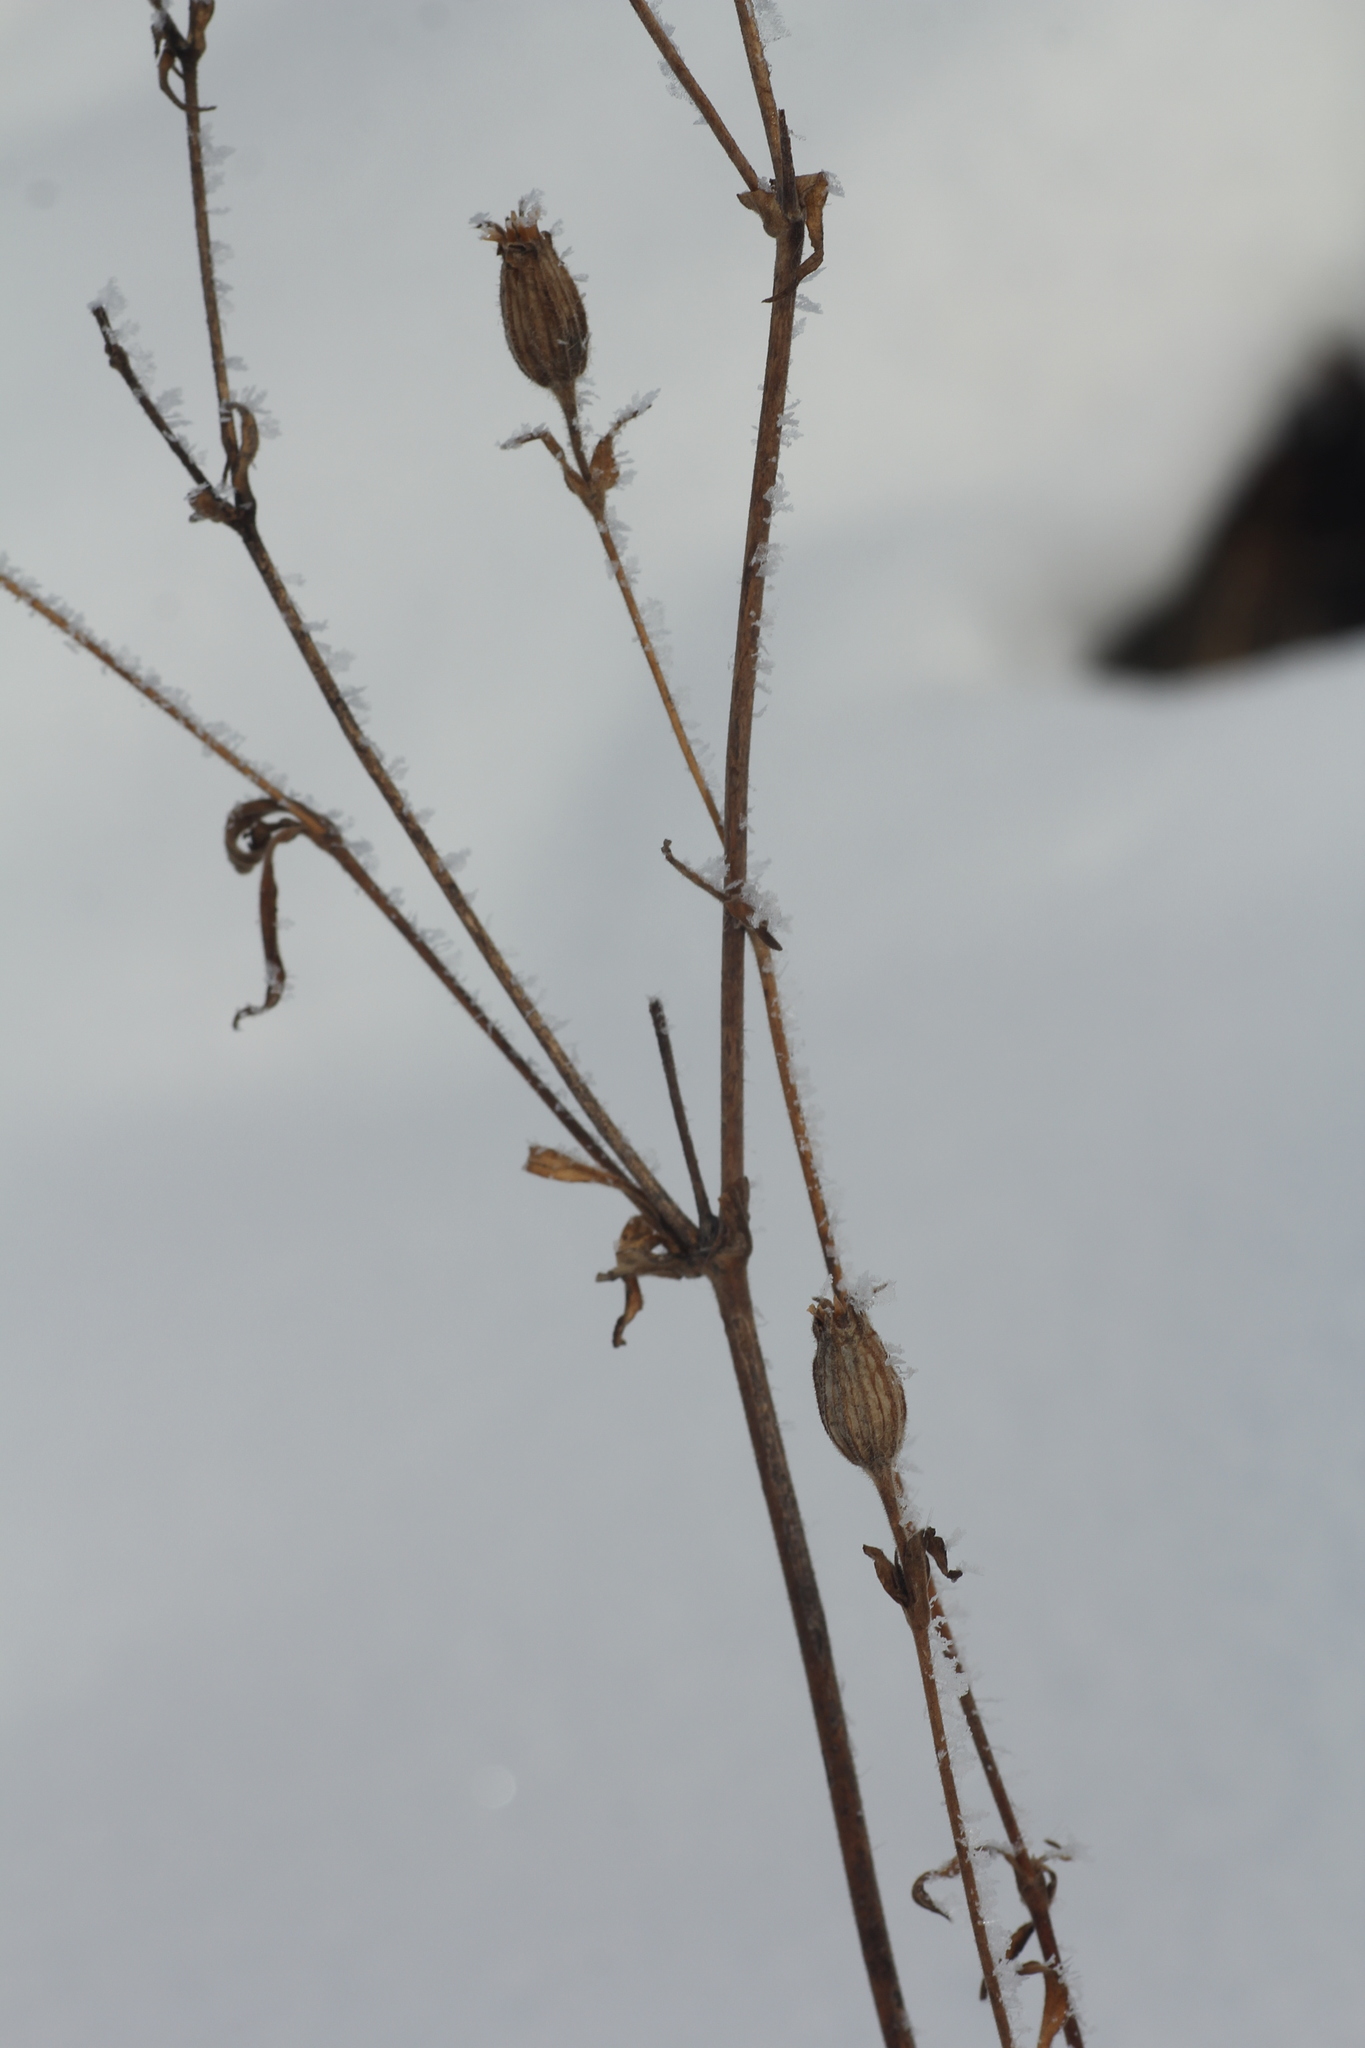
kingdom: Plantae
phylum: Tracheophyta
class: Magnoliopsida
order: Caryophyllales
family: Caryophyllaceae
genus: Silene
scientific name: Silene latifolia
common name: White campion
